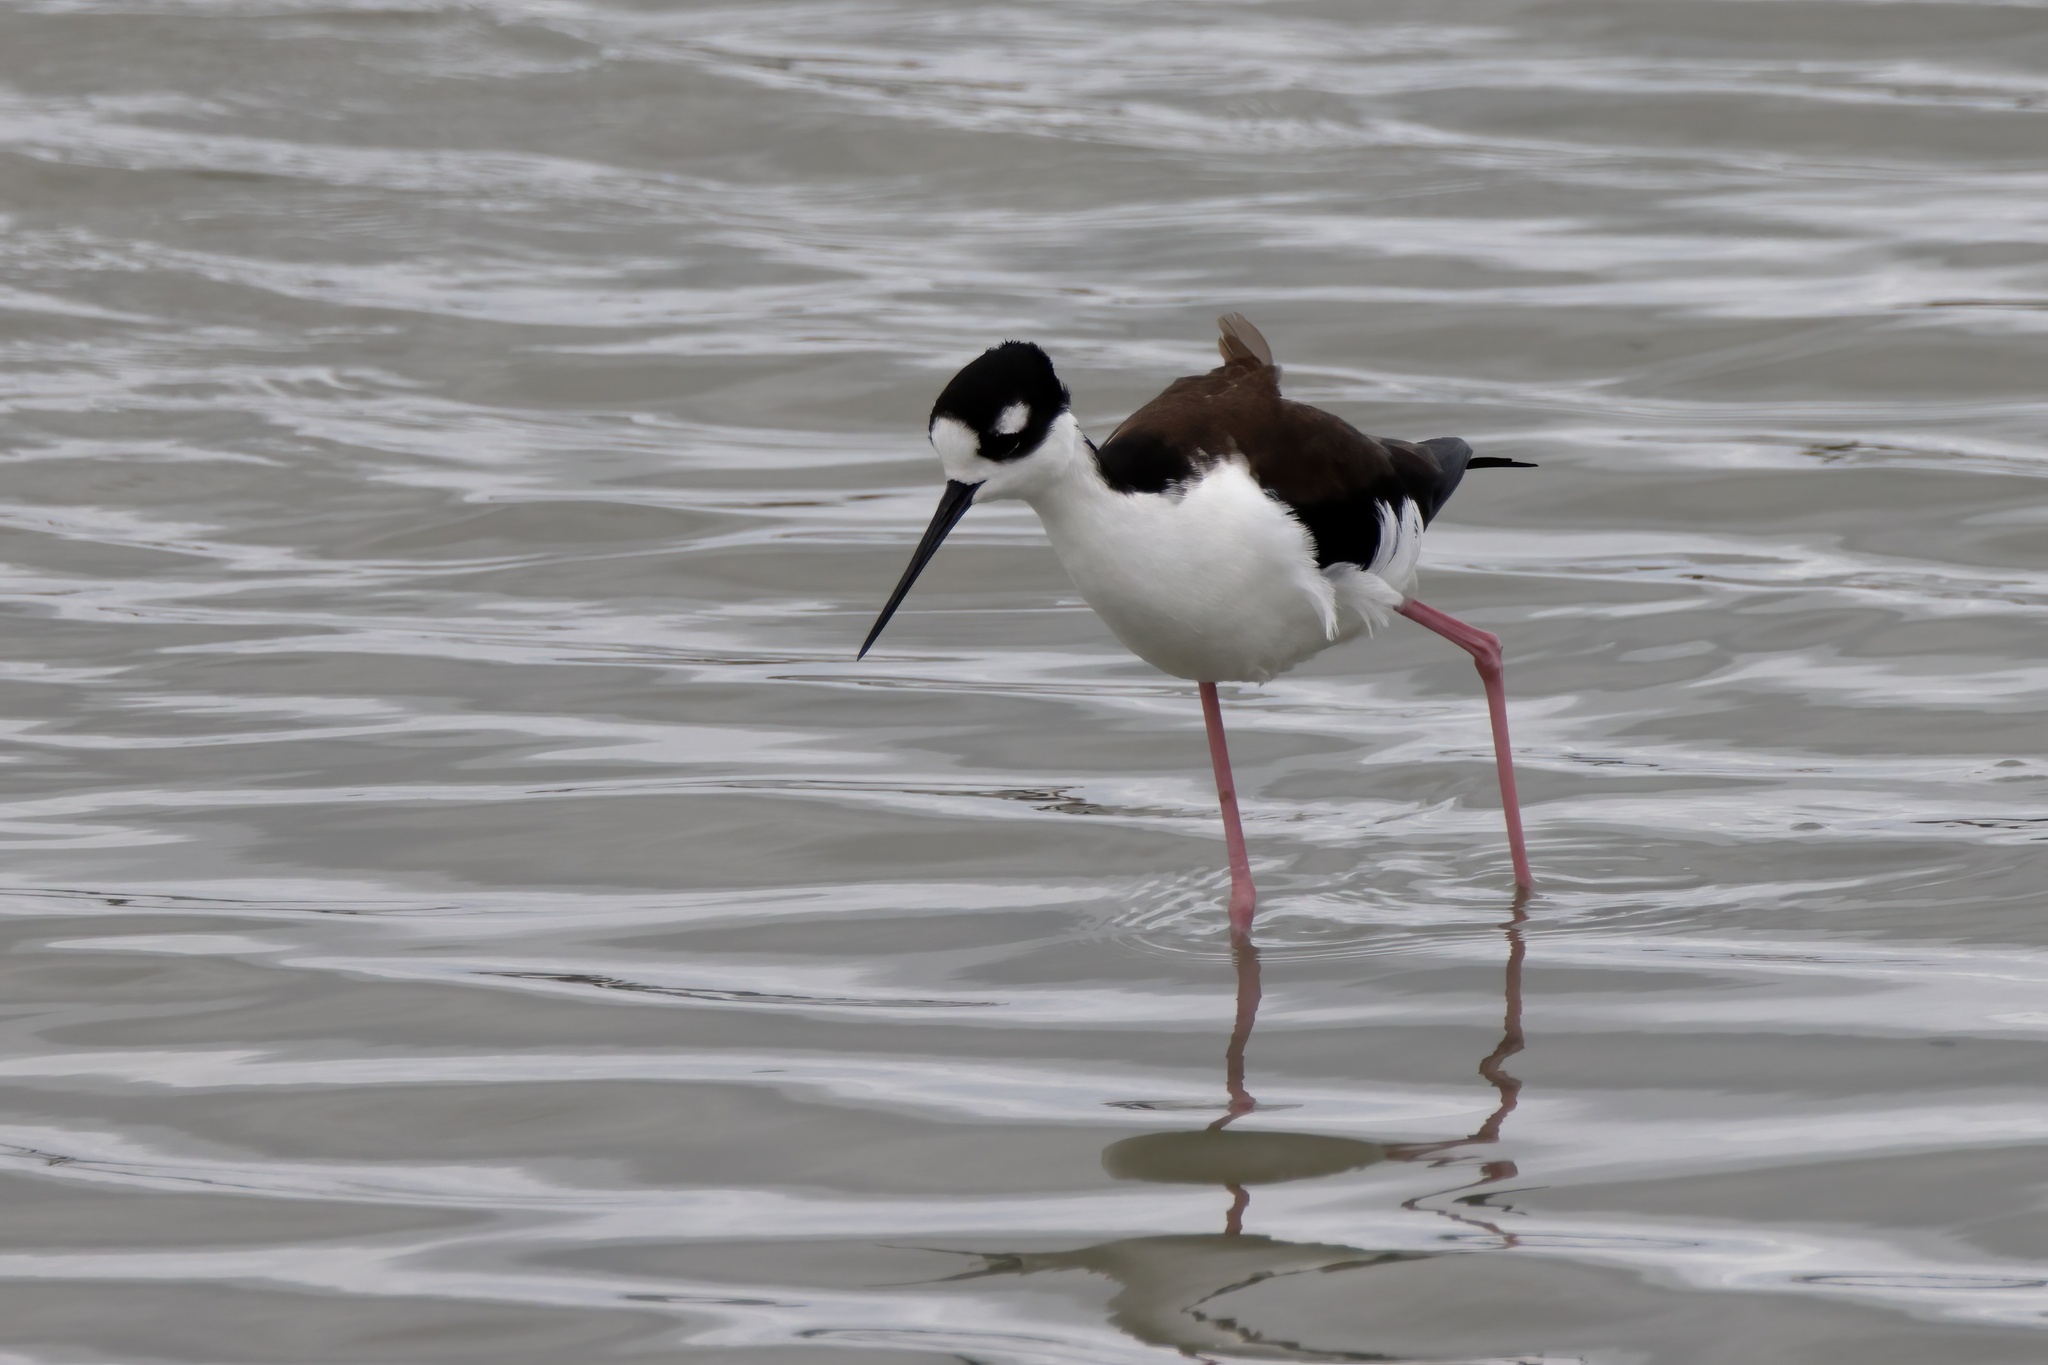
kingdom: Animalia
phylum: Chordata
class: Aves
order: Charadriiformes
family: Recurvirostridae
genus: Himantopus
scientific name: Himantopus mexicanus
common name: Black-necked stilt
